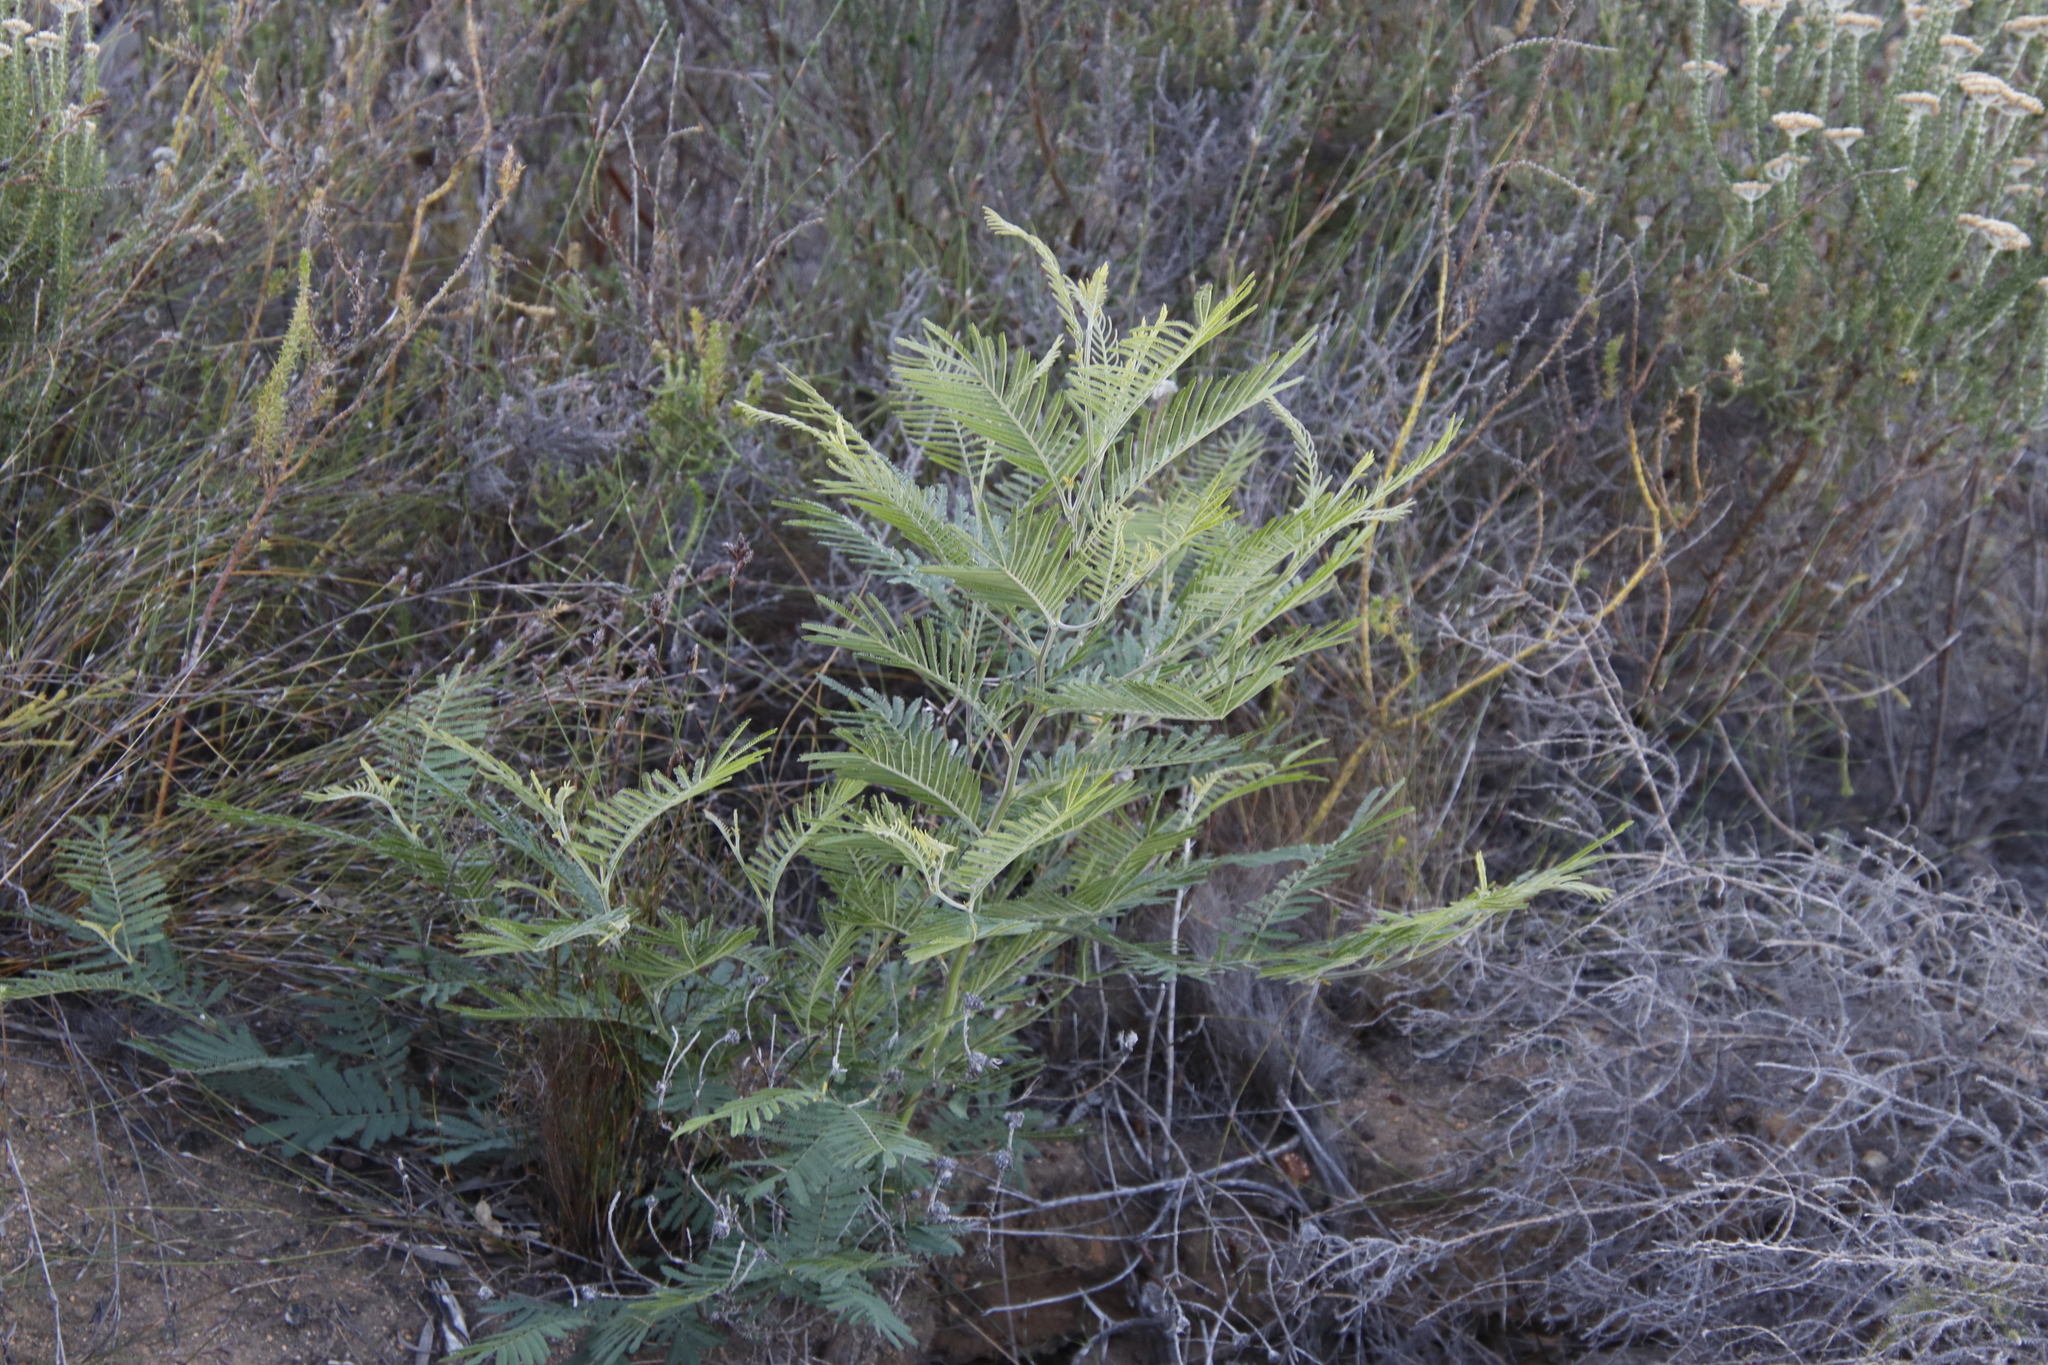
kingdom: Plantae
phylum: Tracheophyta
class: Magnoliopsida
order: Fabales
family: Fabaceae
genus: Acacia
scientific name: Acacia mearnsii
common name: Black wattle
